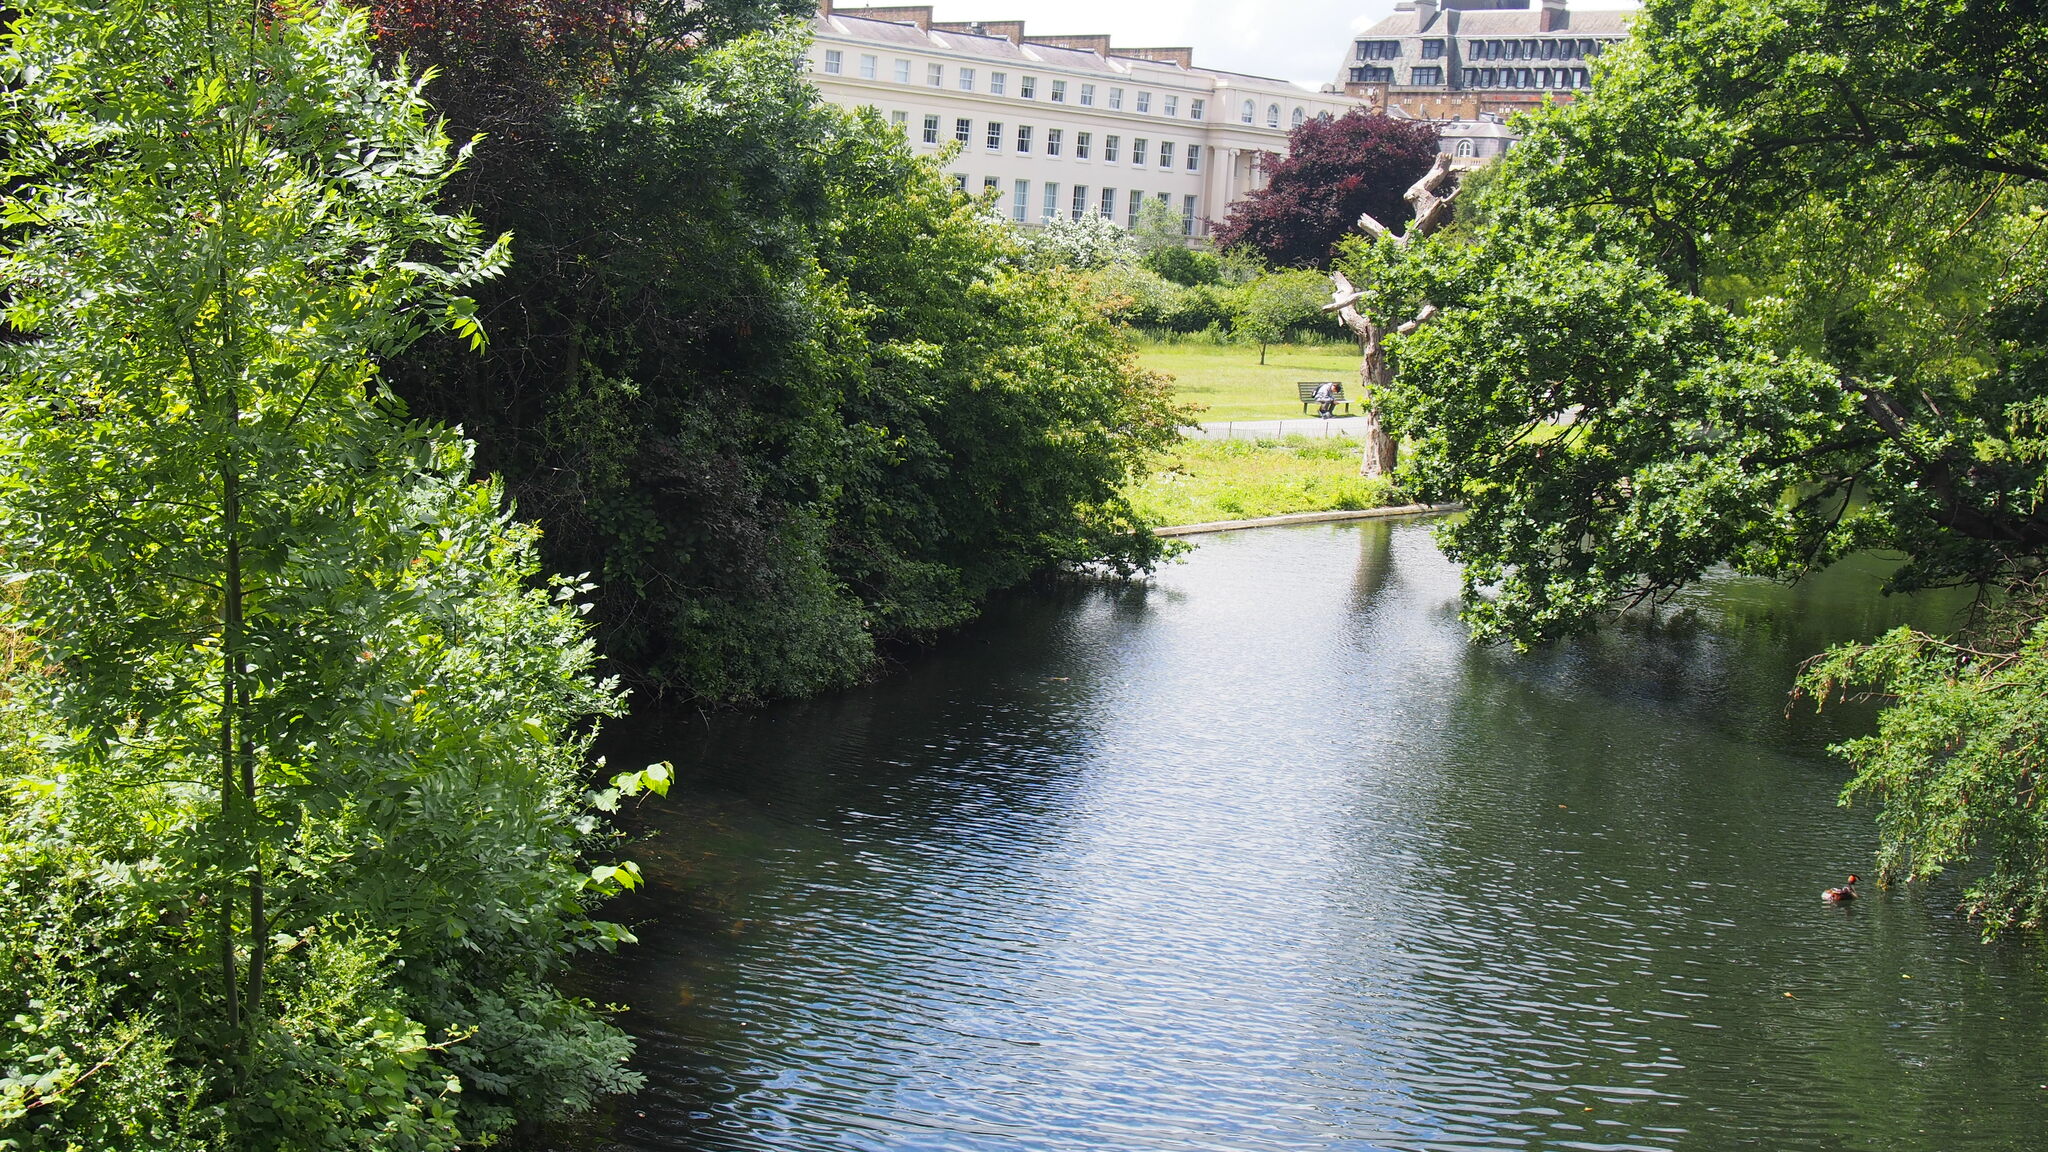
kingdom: Animalia
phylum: Chordata
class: Aves
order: Podicipediformes
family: Podicipedidae
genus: Podiceps
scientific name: Podiceps cristatus
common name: Great crested grebe
